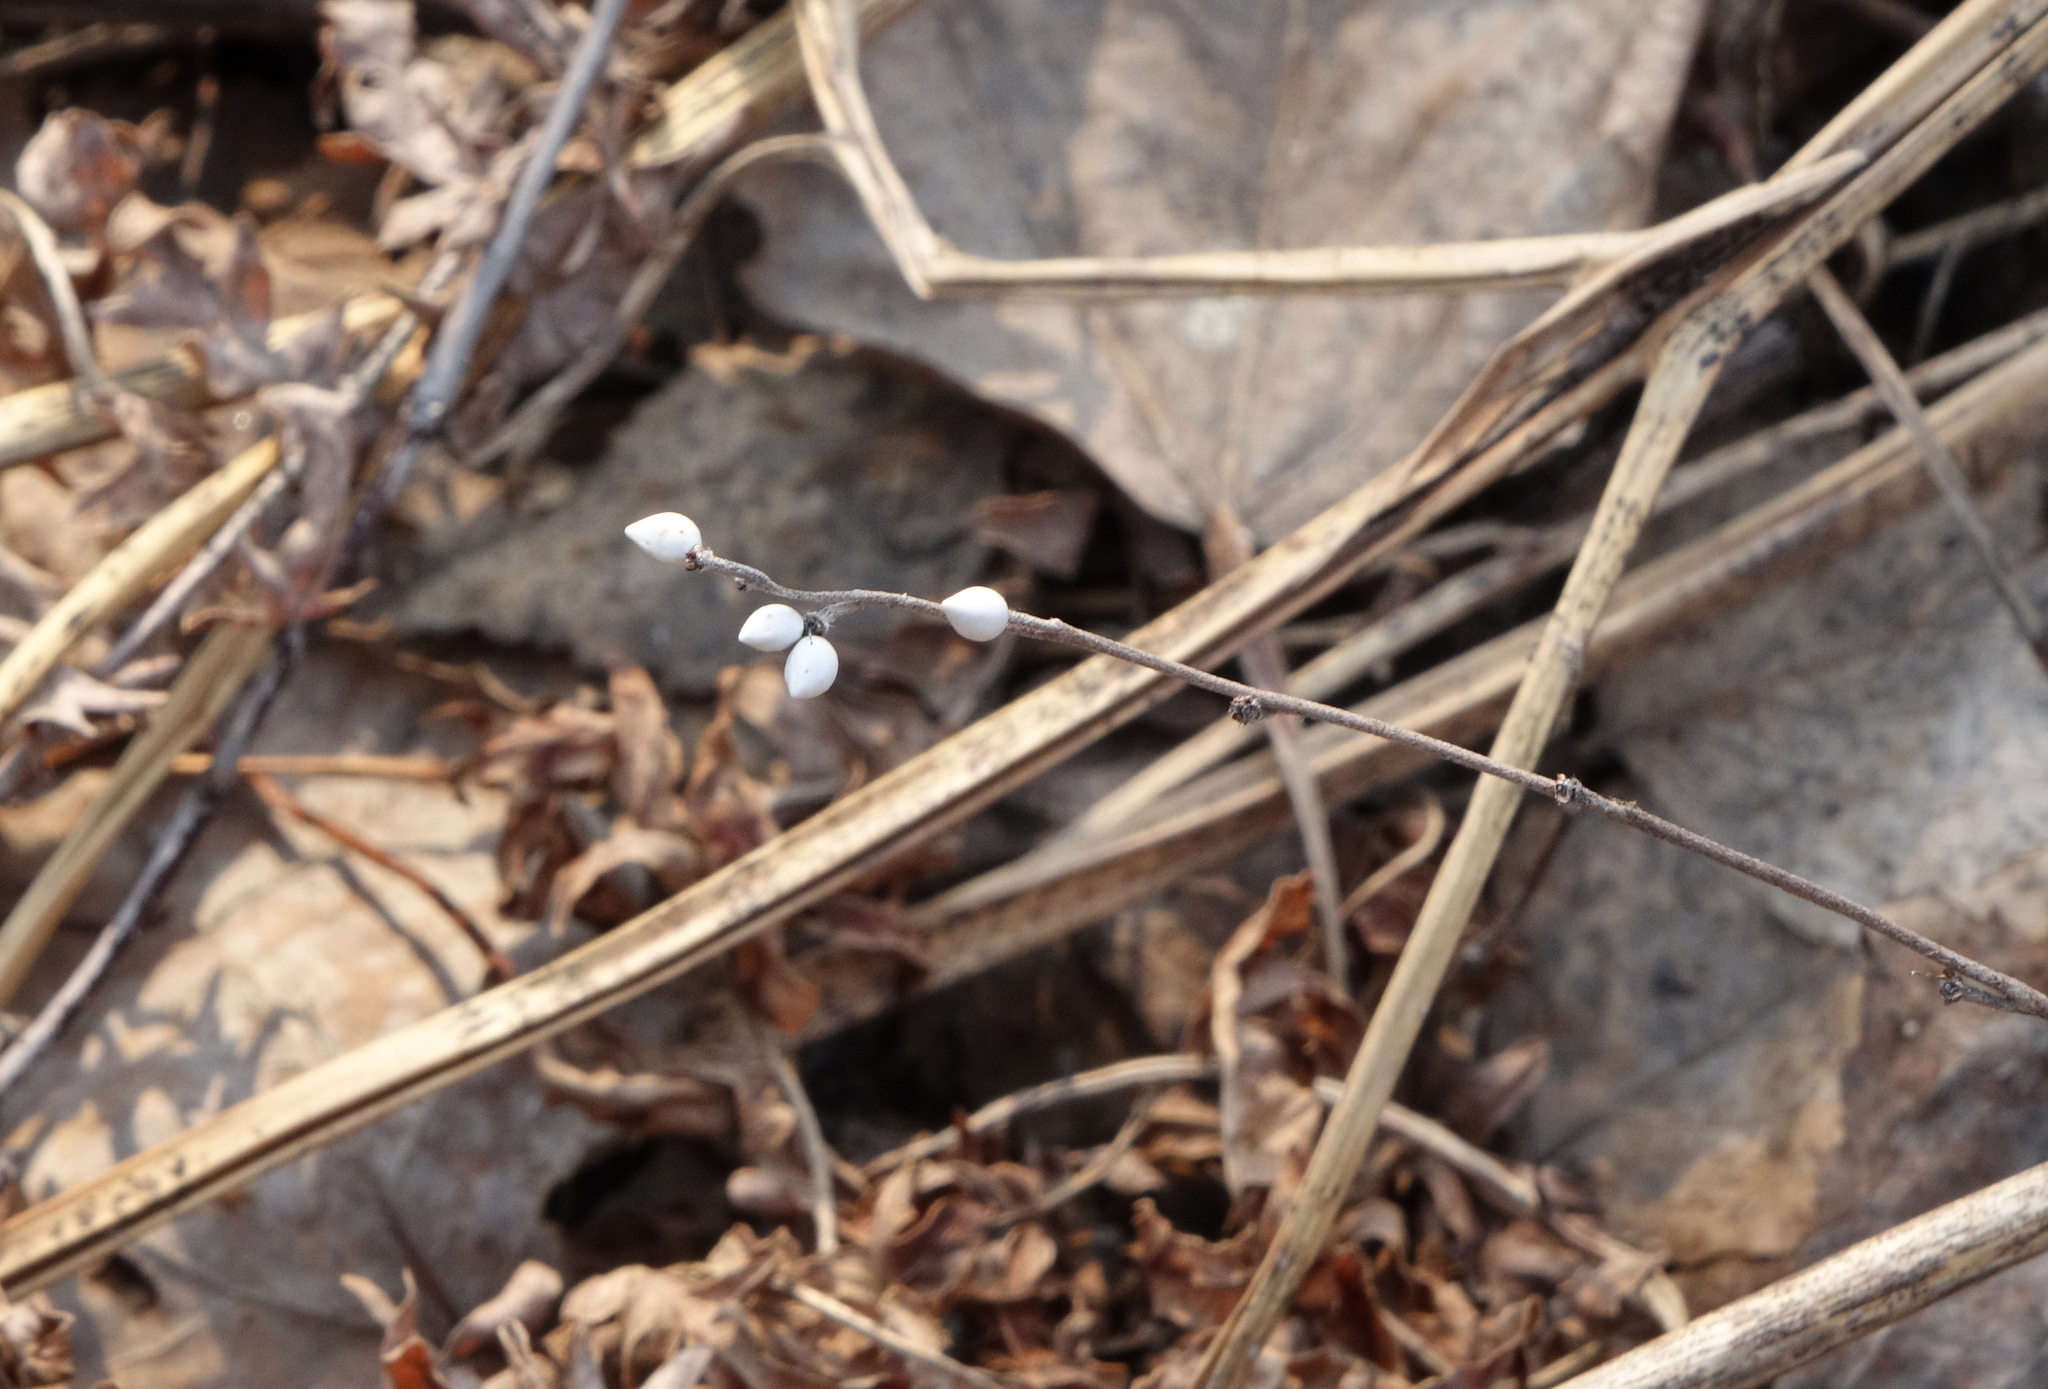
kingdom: Plantae
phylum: Tracheophyta
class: Magnoliopsida
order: Boraginales
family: Boraginaceae
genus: Lithospermum
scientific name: Lithospermum officinale
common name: Common gromwell
